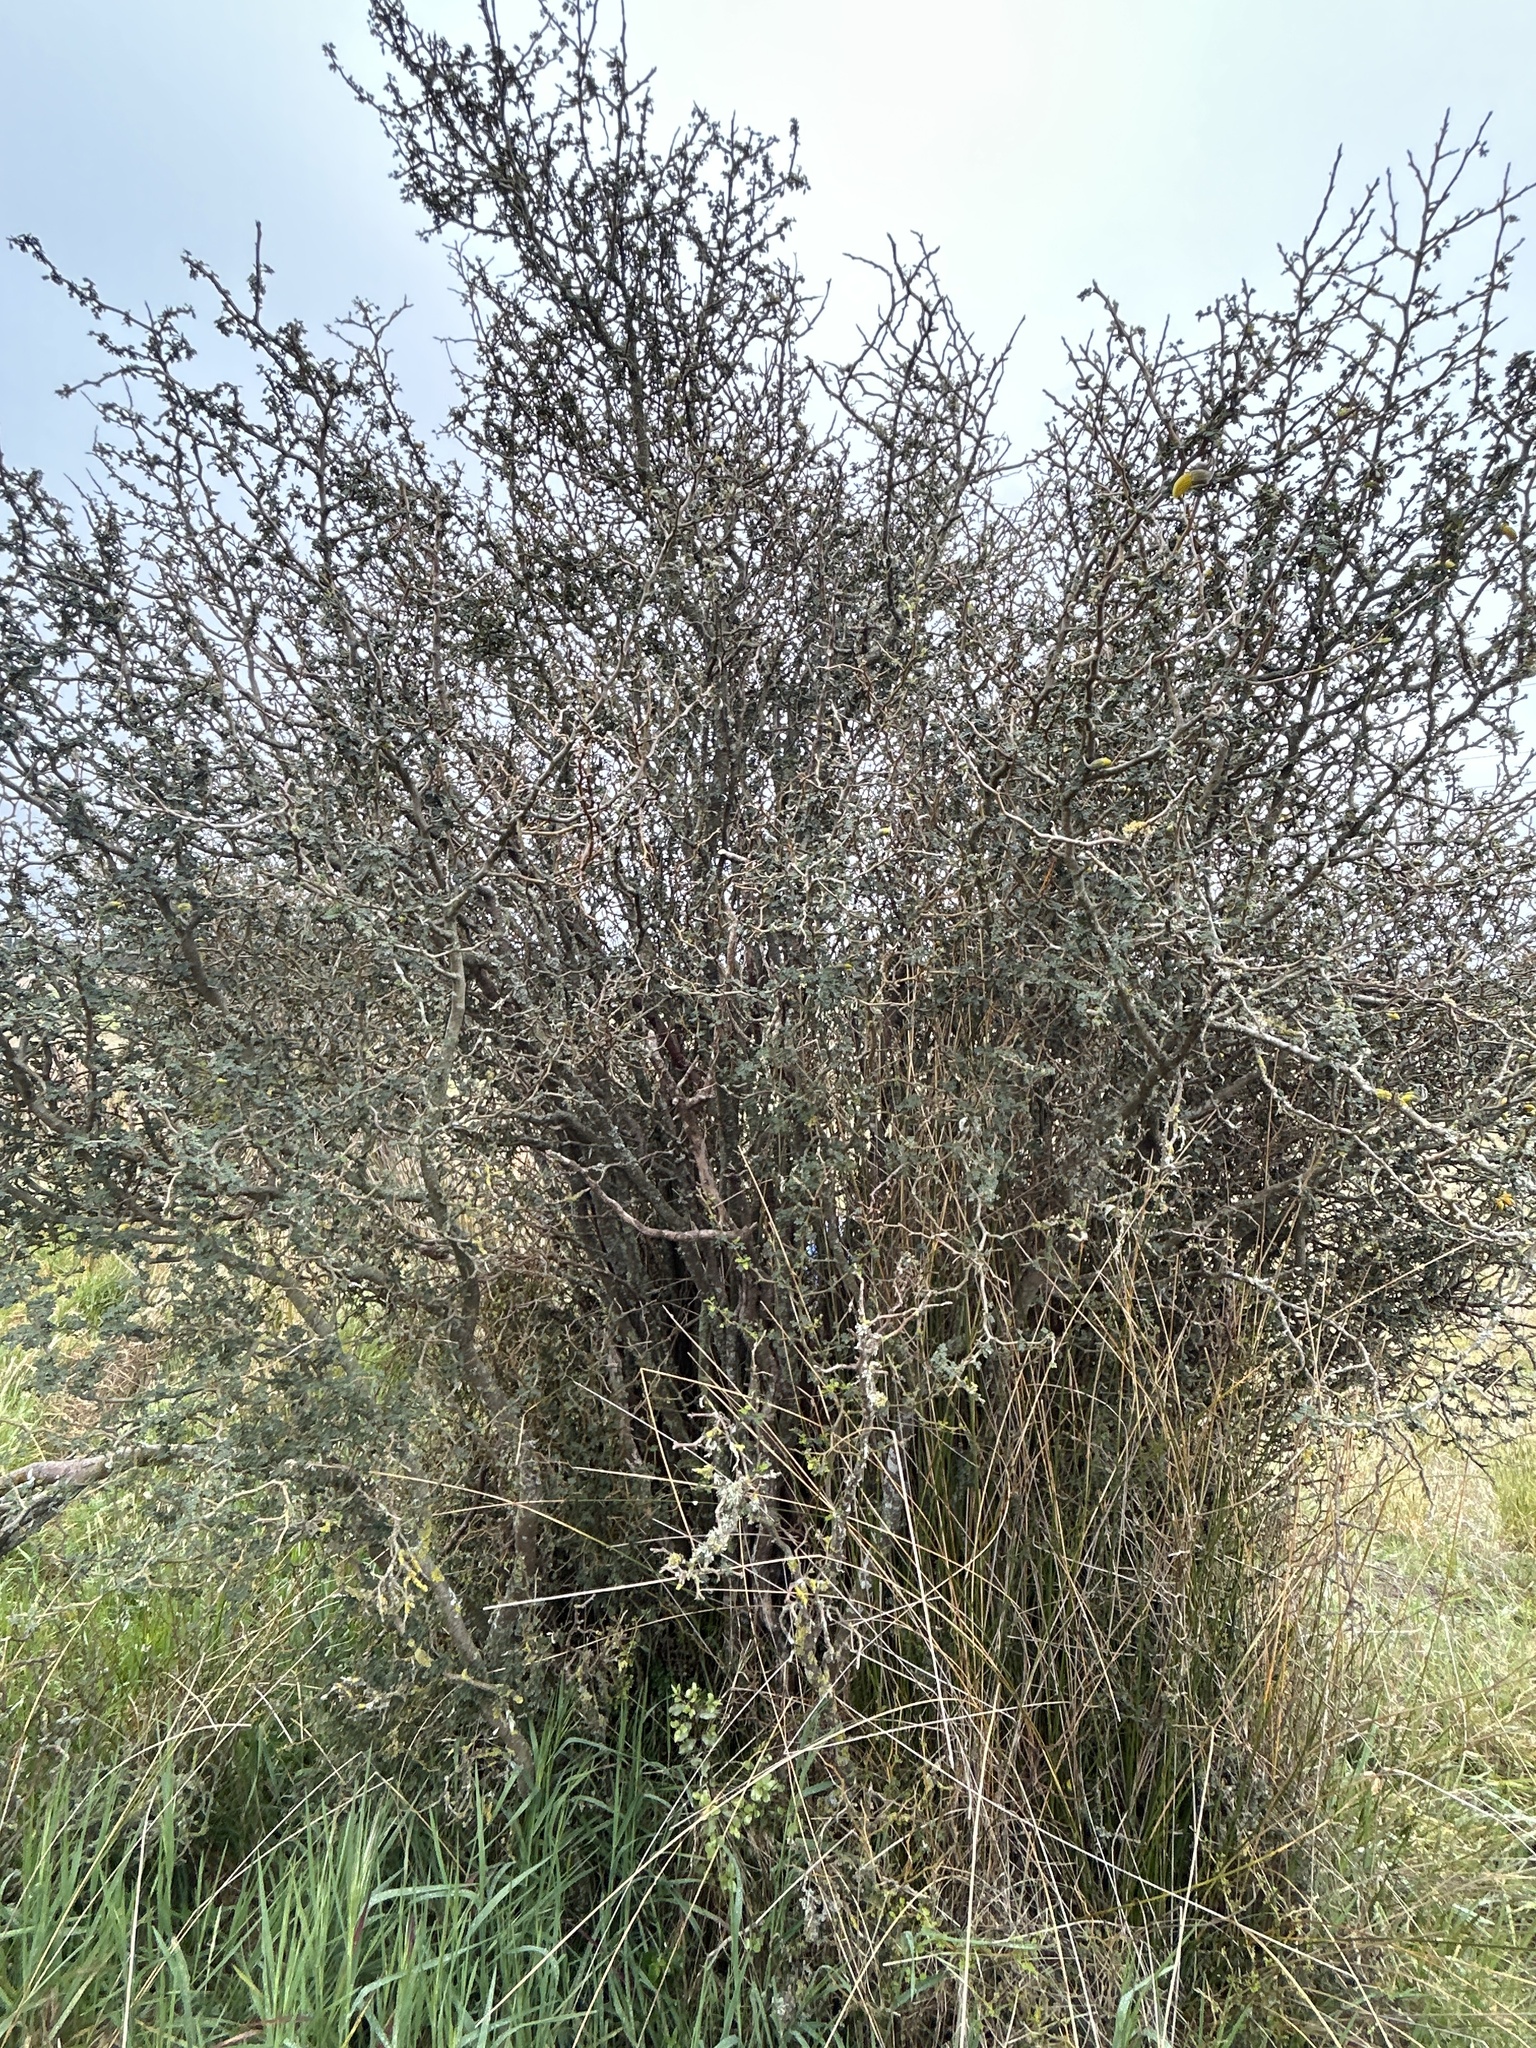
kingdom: Plantae
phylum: Tracheophyta
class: Magnoliopsida
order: Fabales
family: Fabaceae
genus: Sophora
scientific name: Sophora microphylla
